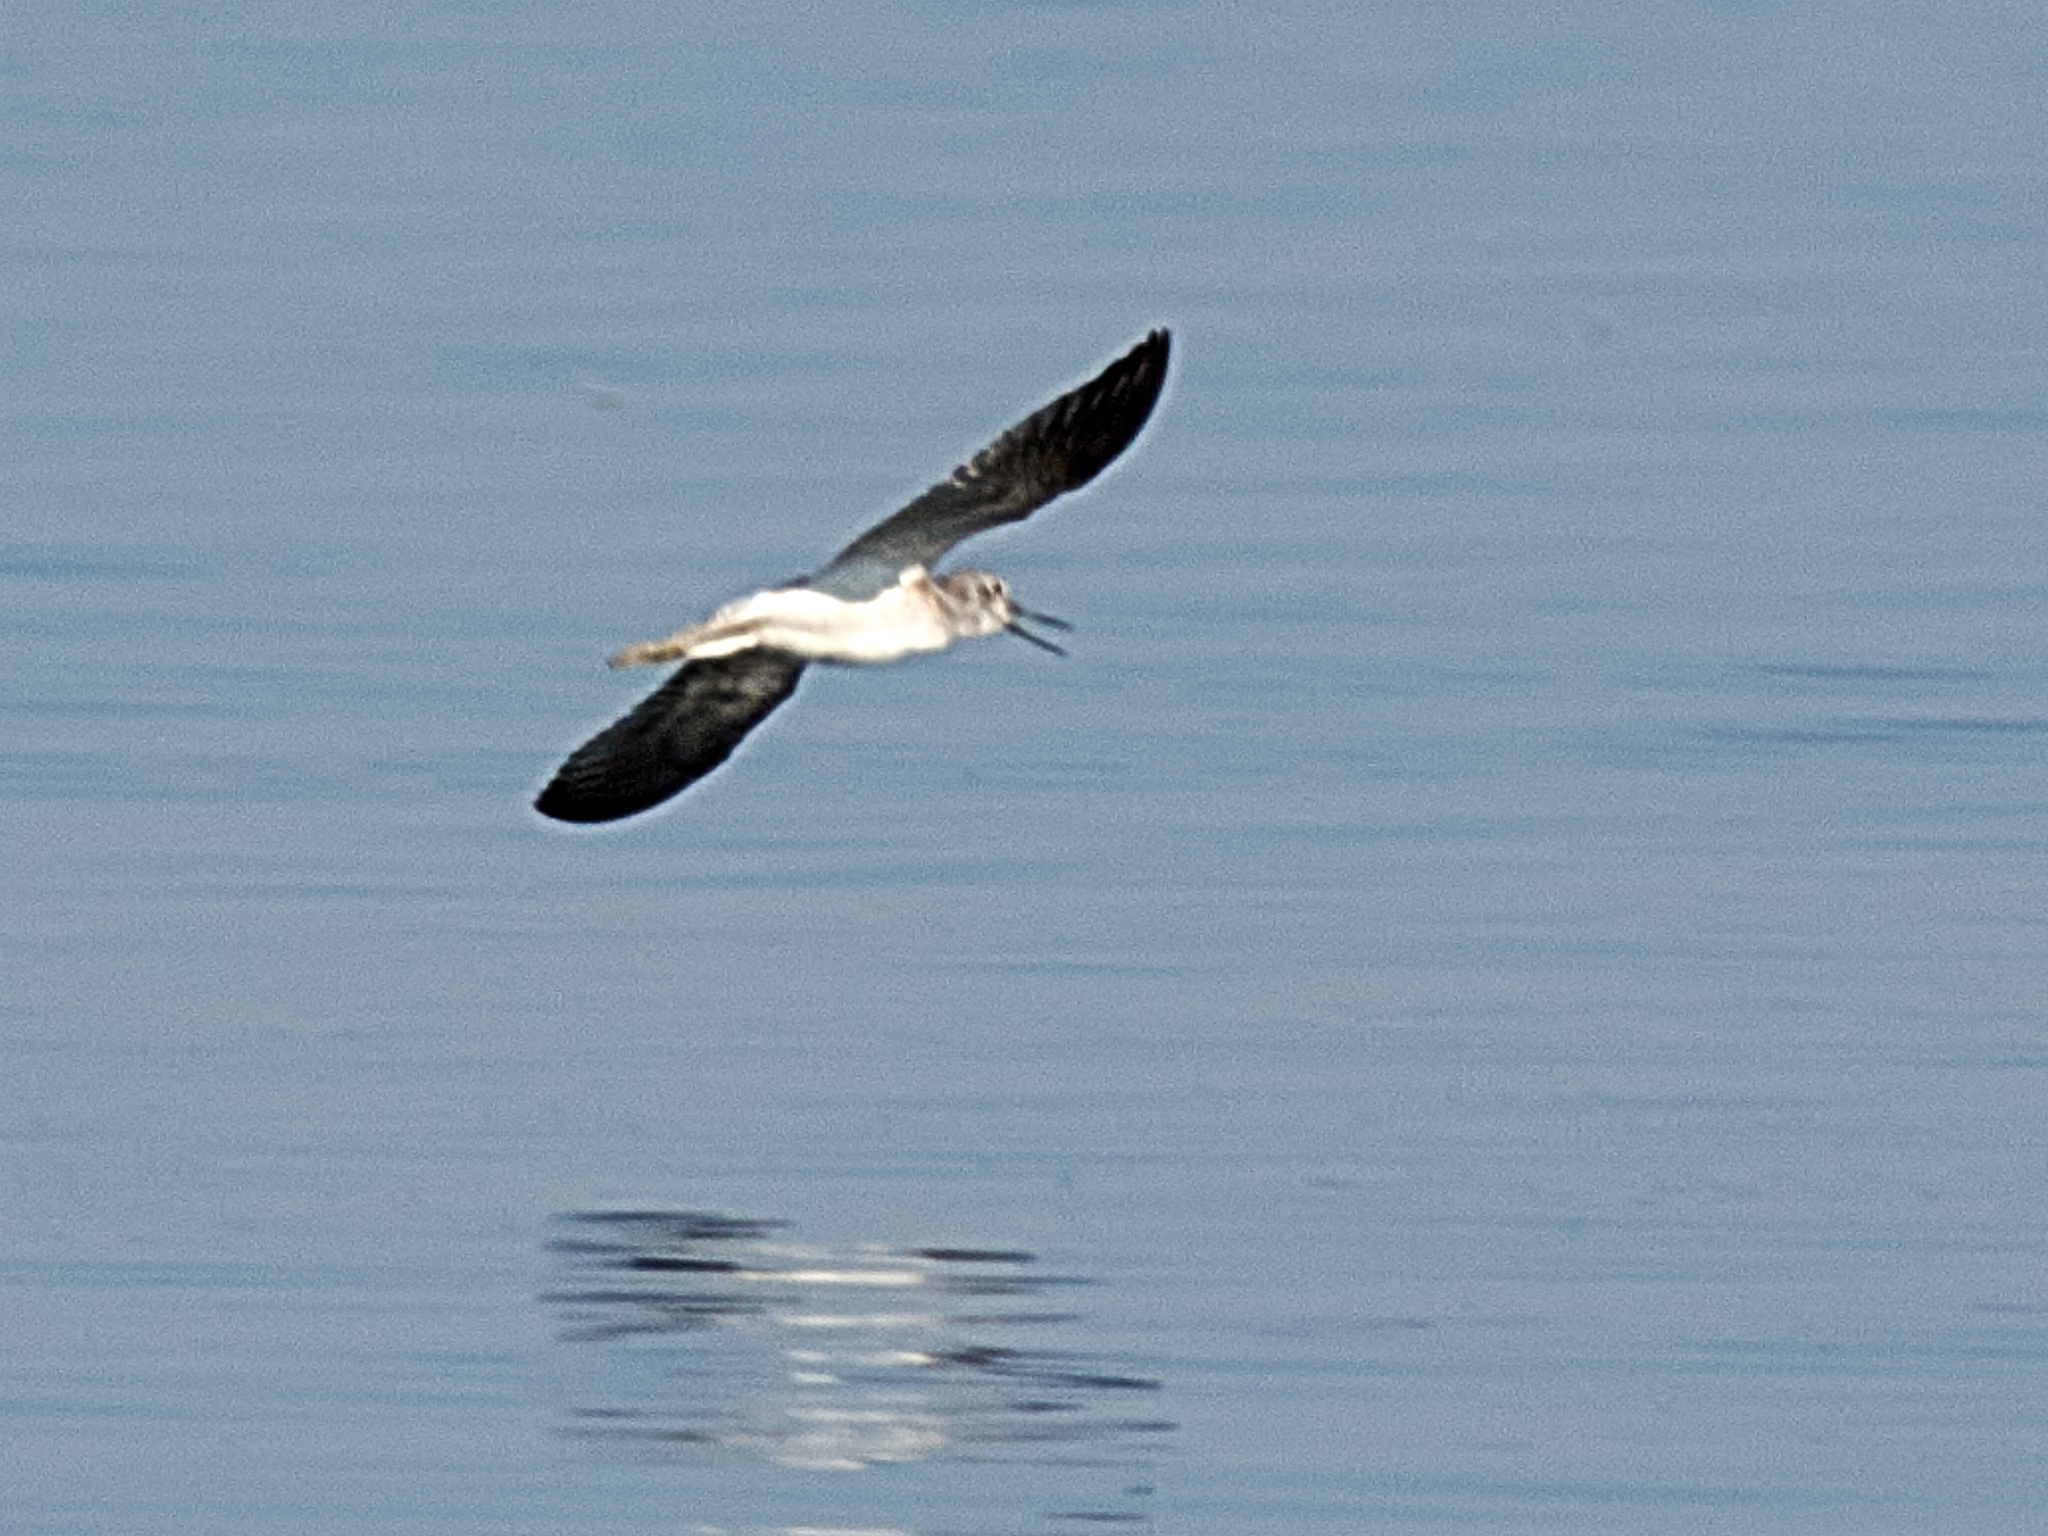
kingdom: Animalia
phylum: Chordata
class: Aves
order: Charadriiformes
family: Scolopacidae
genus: Tringa
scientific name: Tringa nebularia
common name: Common greenshank
